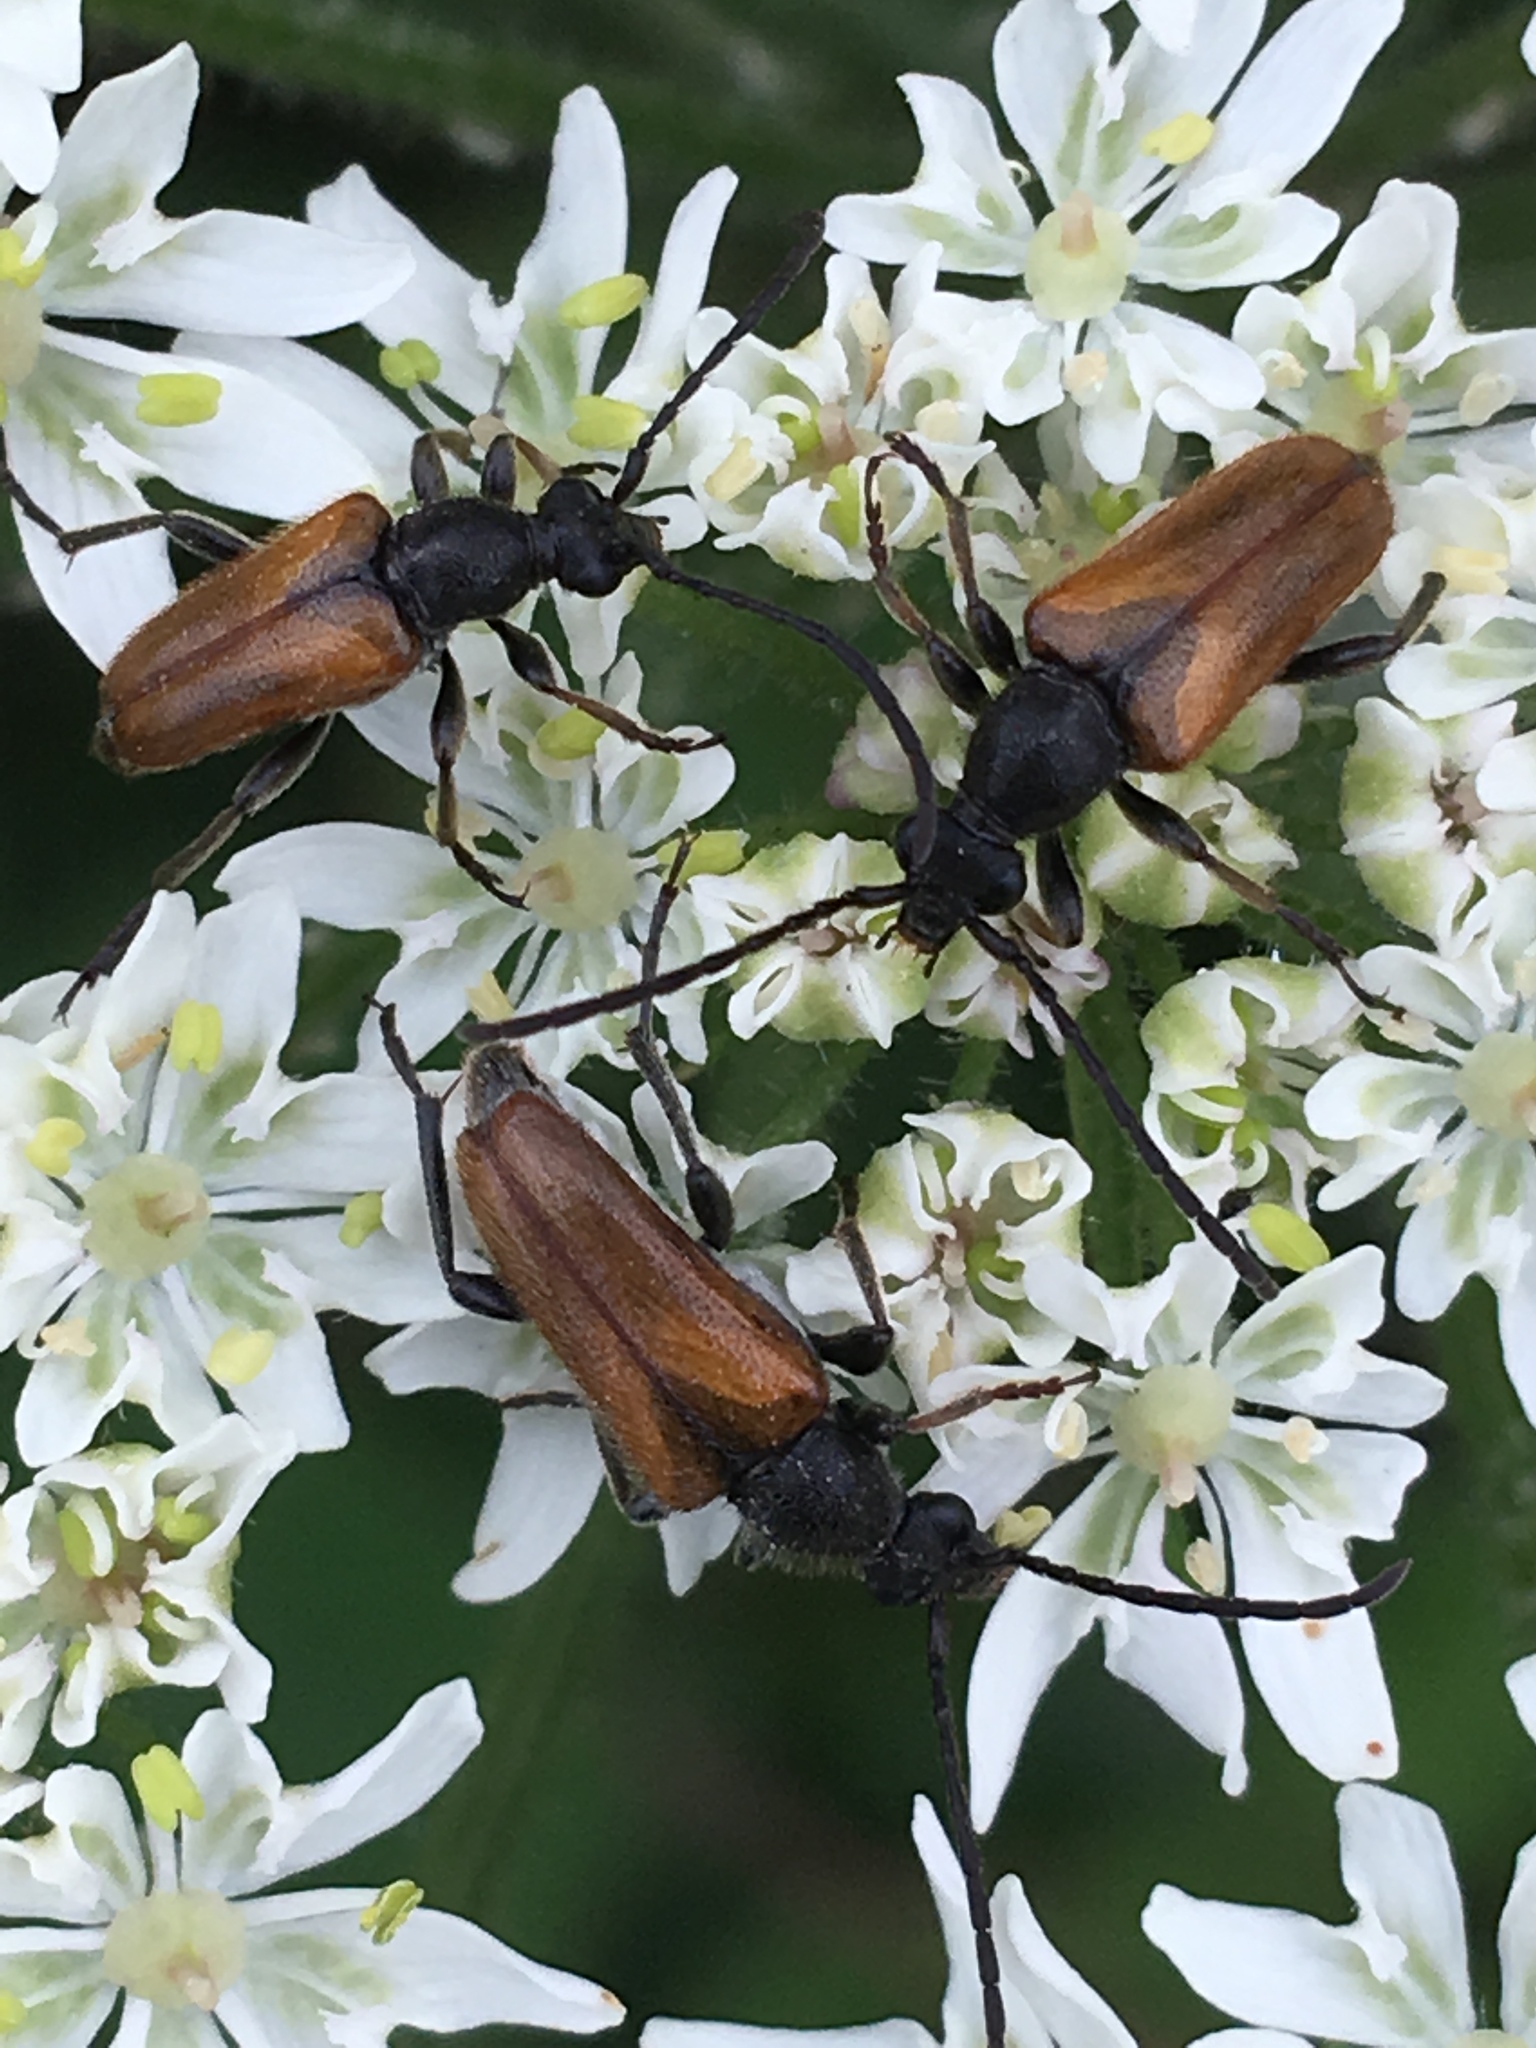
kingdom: Animalia
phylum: Arthropoda
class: Insecta
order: Coleoptera
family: Cerambycidae
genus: Pseudovadonia
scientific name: Pseudovadonia livida
